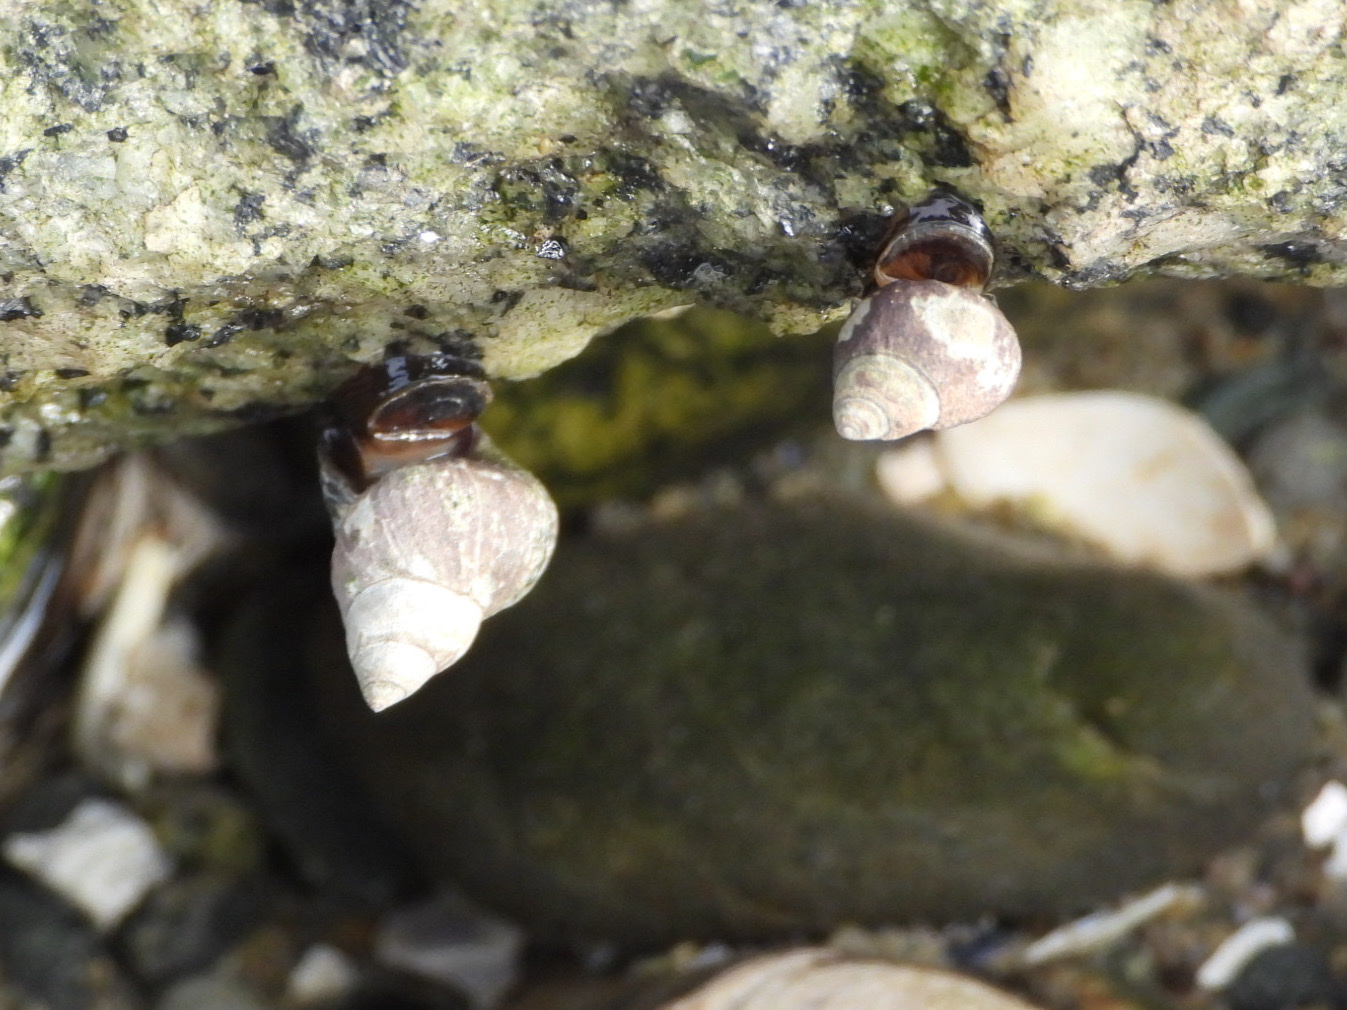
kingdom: Animalia
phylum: Mollusca
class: Gastropoda
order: Littorinimorpha
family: Littorinidae
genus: Littorina
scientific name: Littorina scutulata
